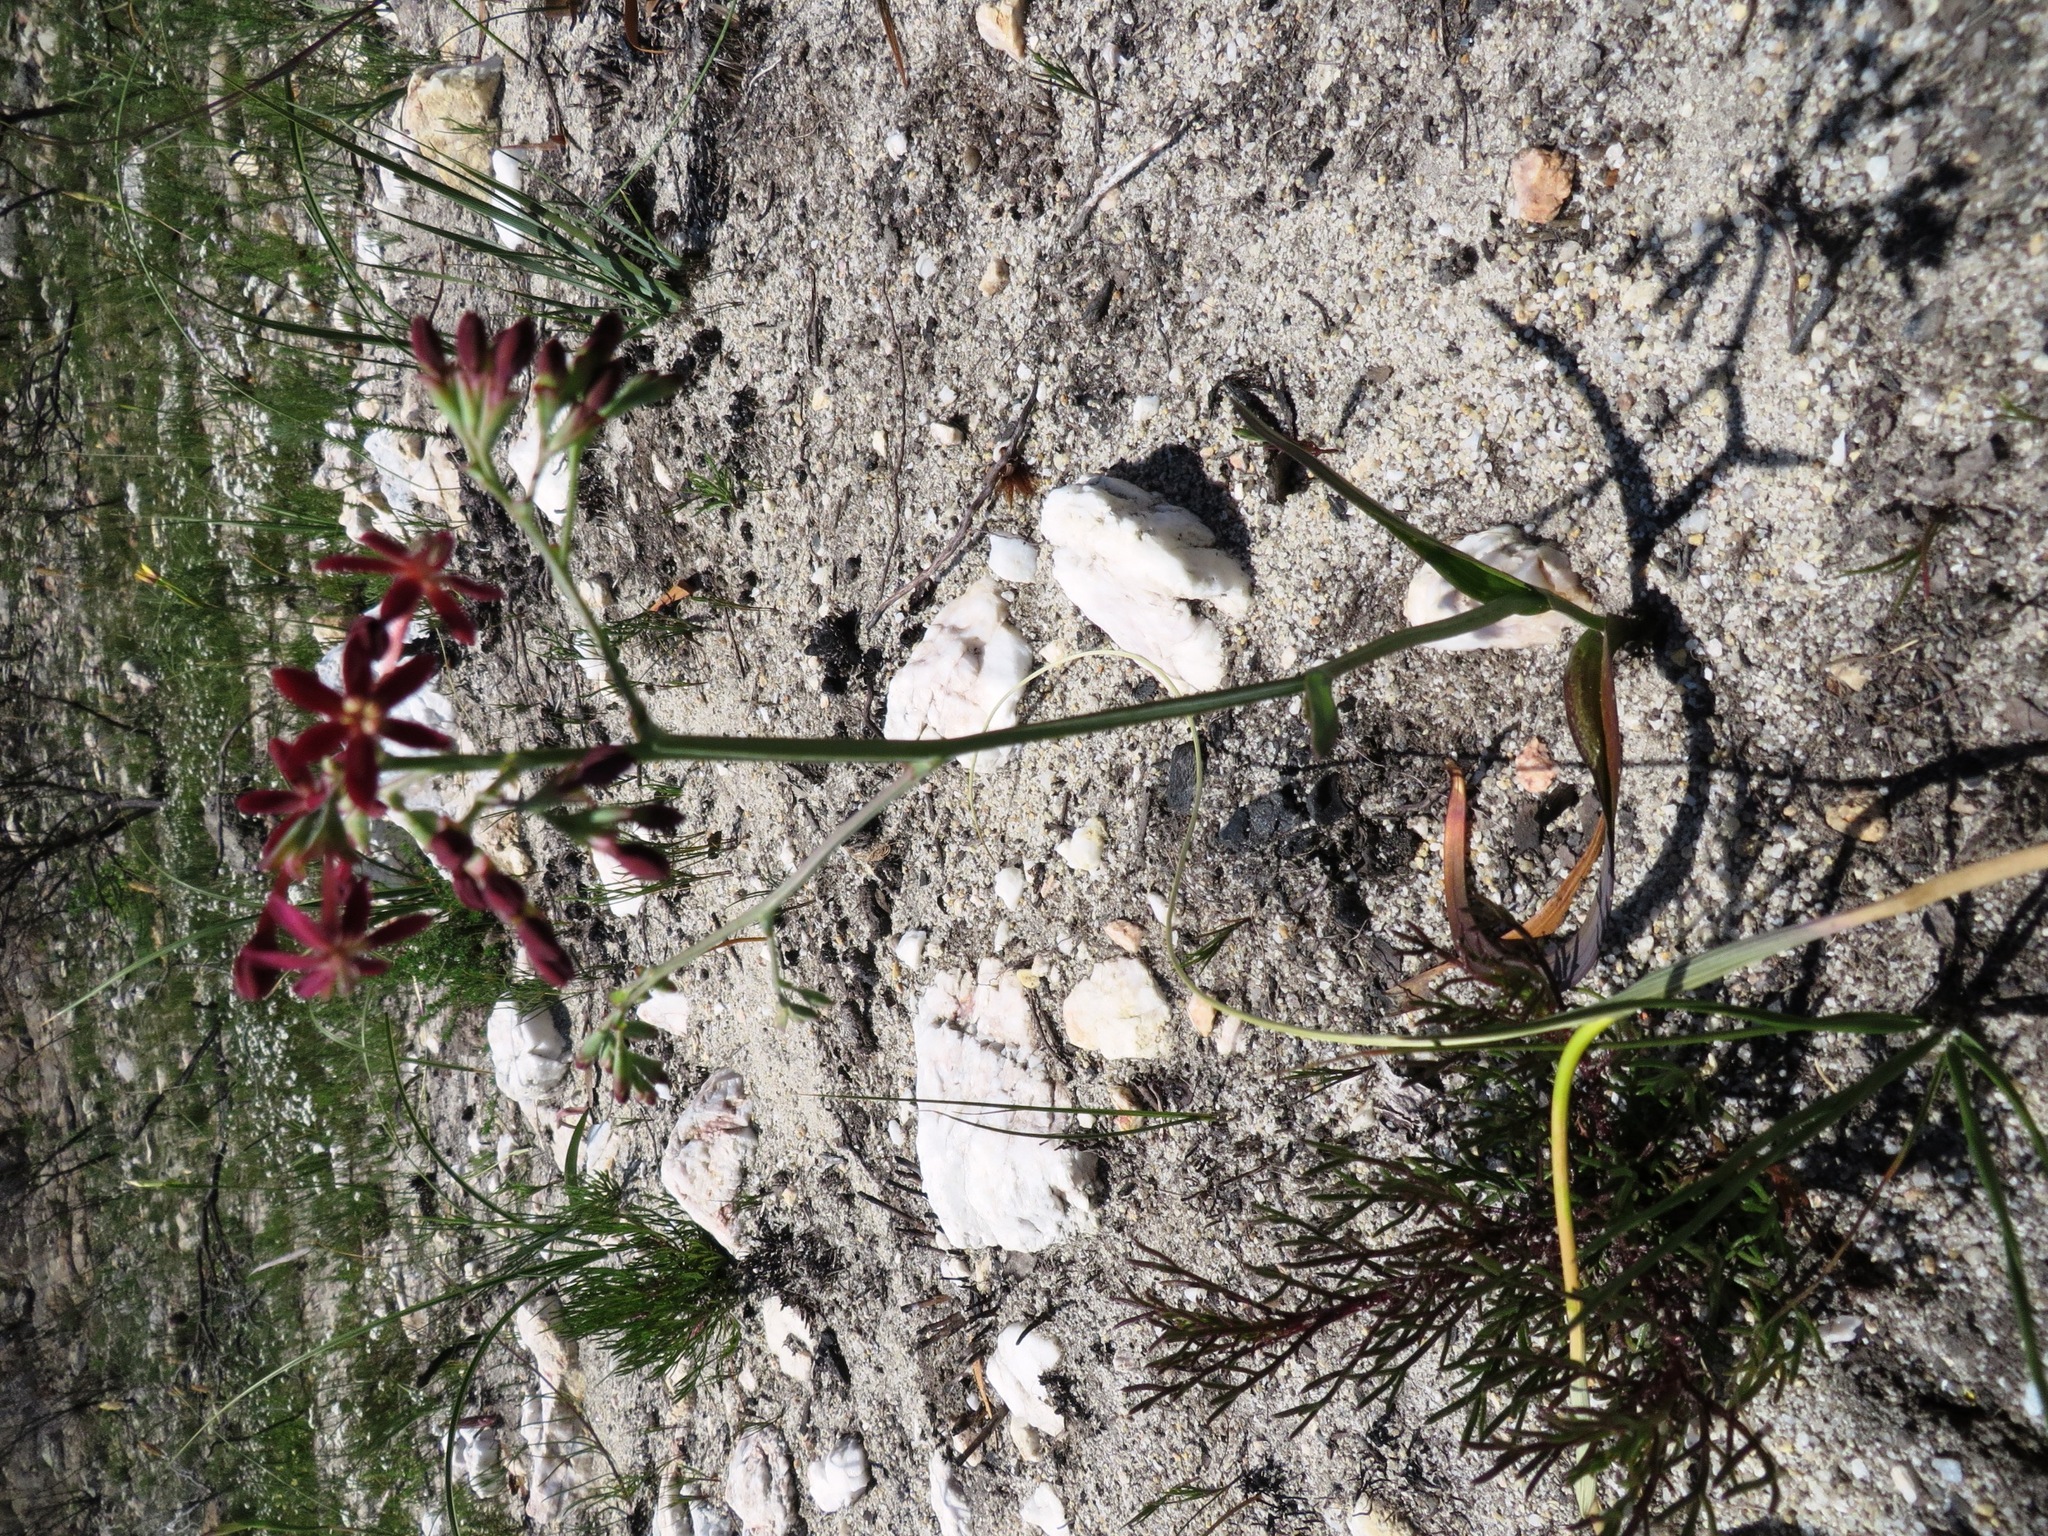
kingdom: Plantae
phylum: Tracheophyta
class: Liliopsida
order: Asparagales
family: Iridaceae
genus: Codonorhiza
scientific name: Codonorhiza micrantha
